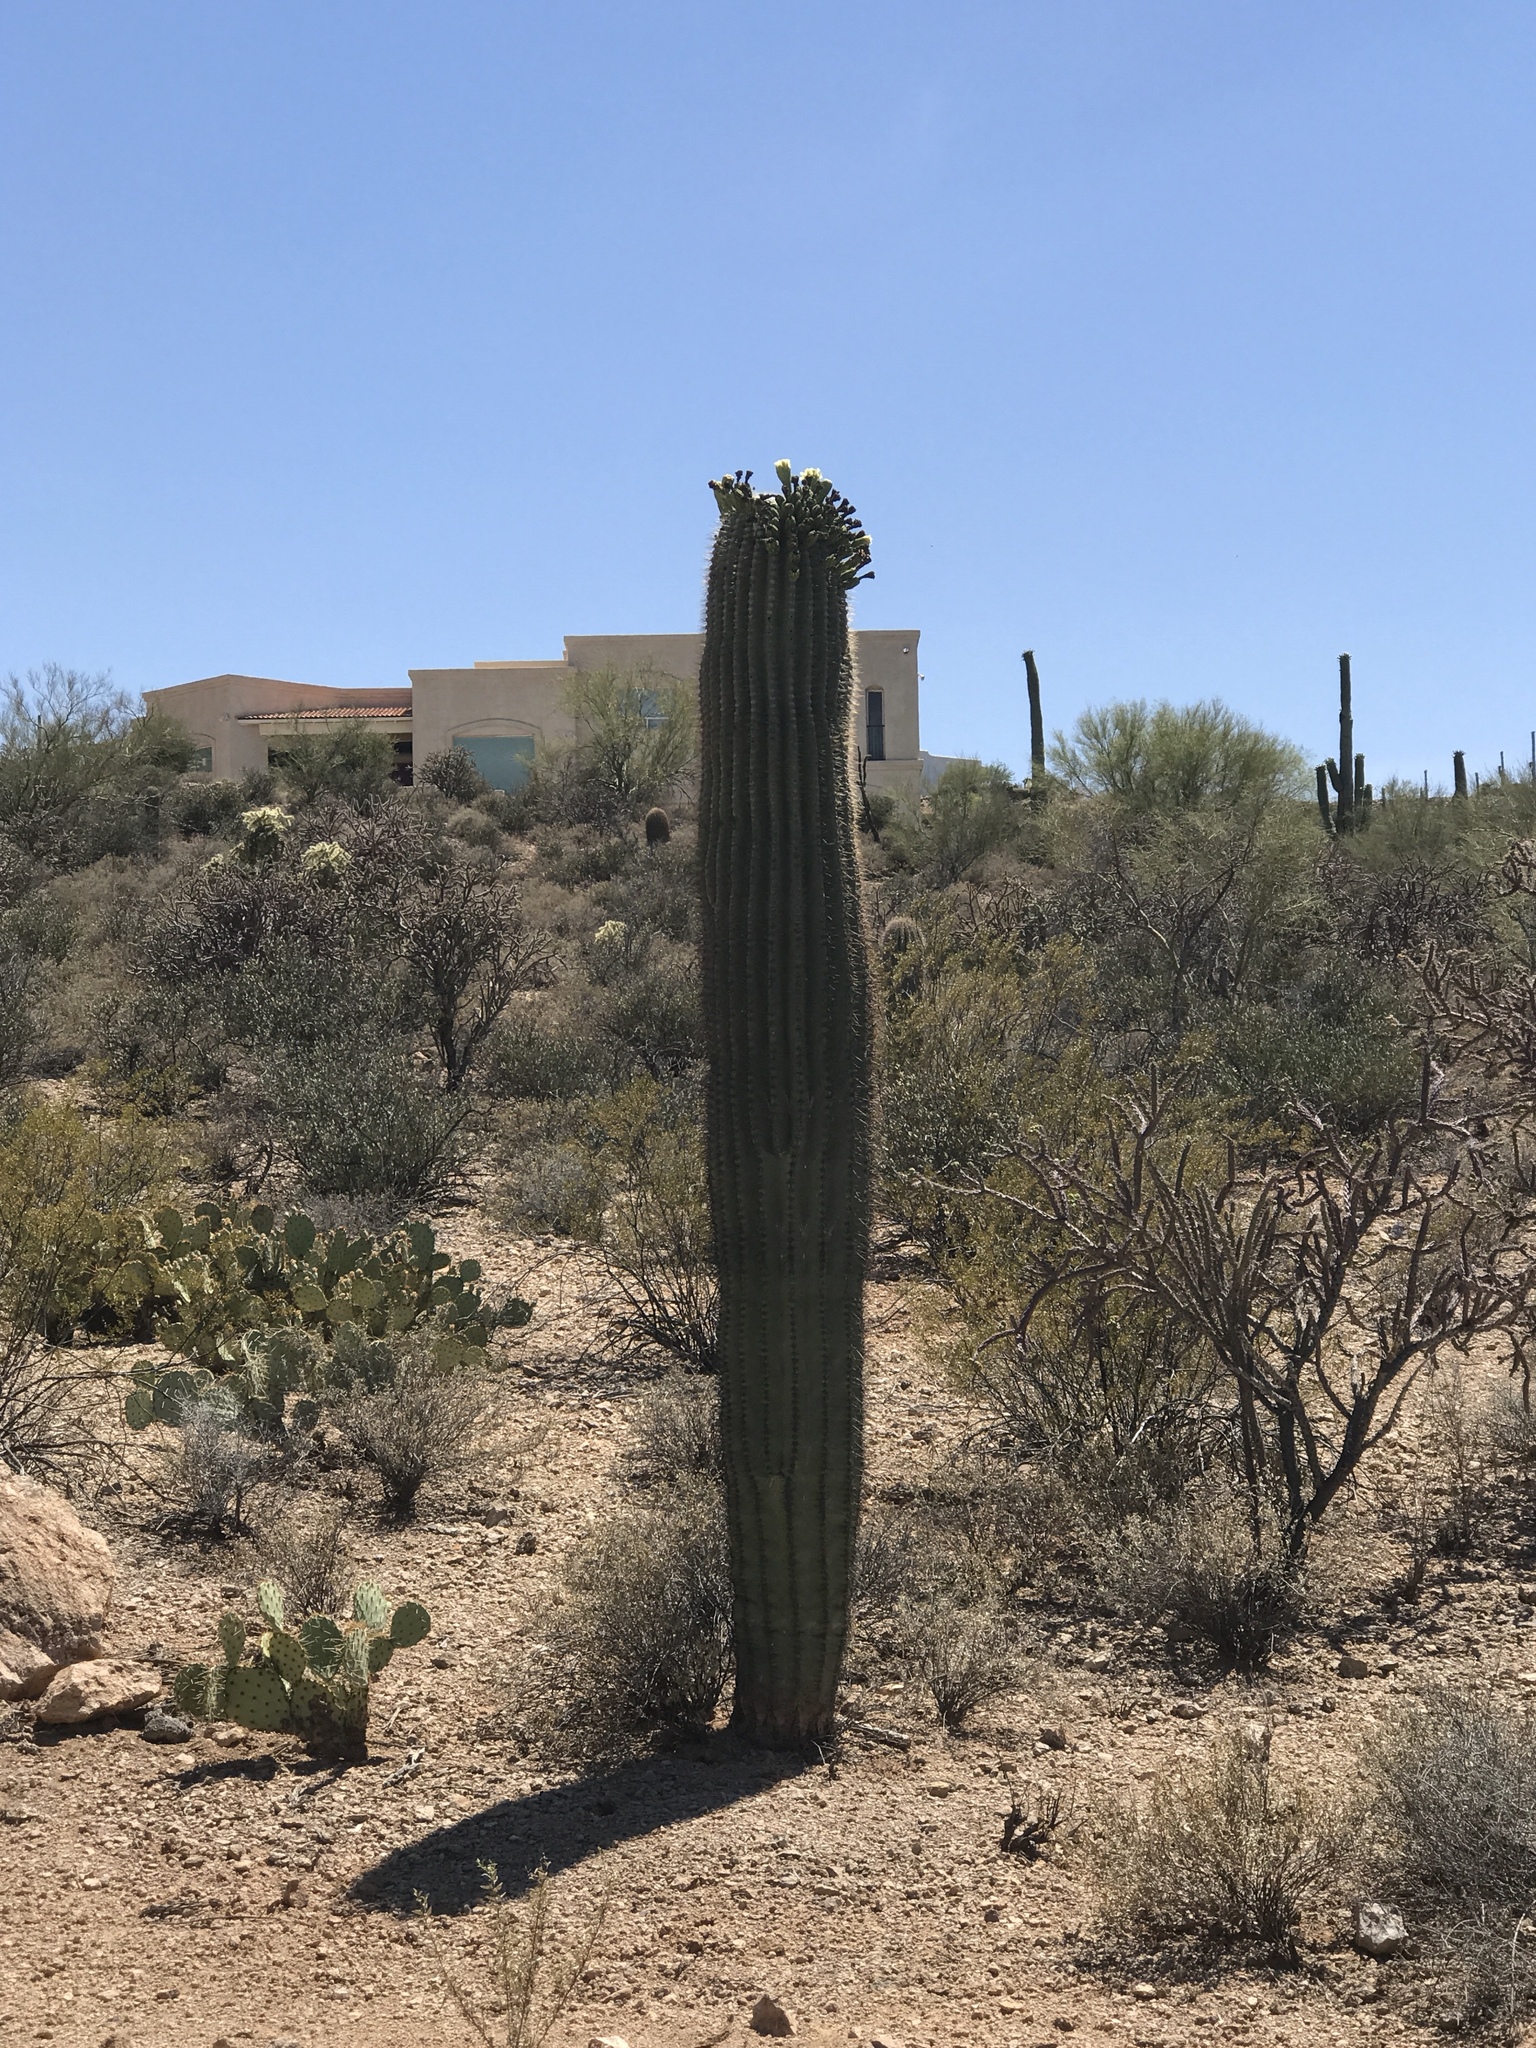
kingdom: Plantae
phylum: Tracheophyta
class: Magnoliopsida
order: Caryophyllales
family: Cactaceae
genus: Carnegiea
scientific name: Carnegiea gigantea
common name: Saguaro
